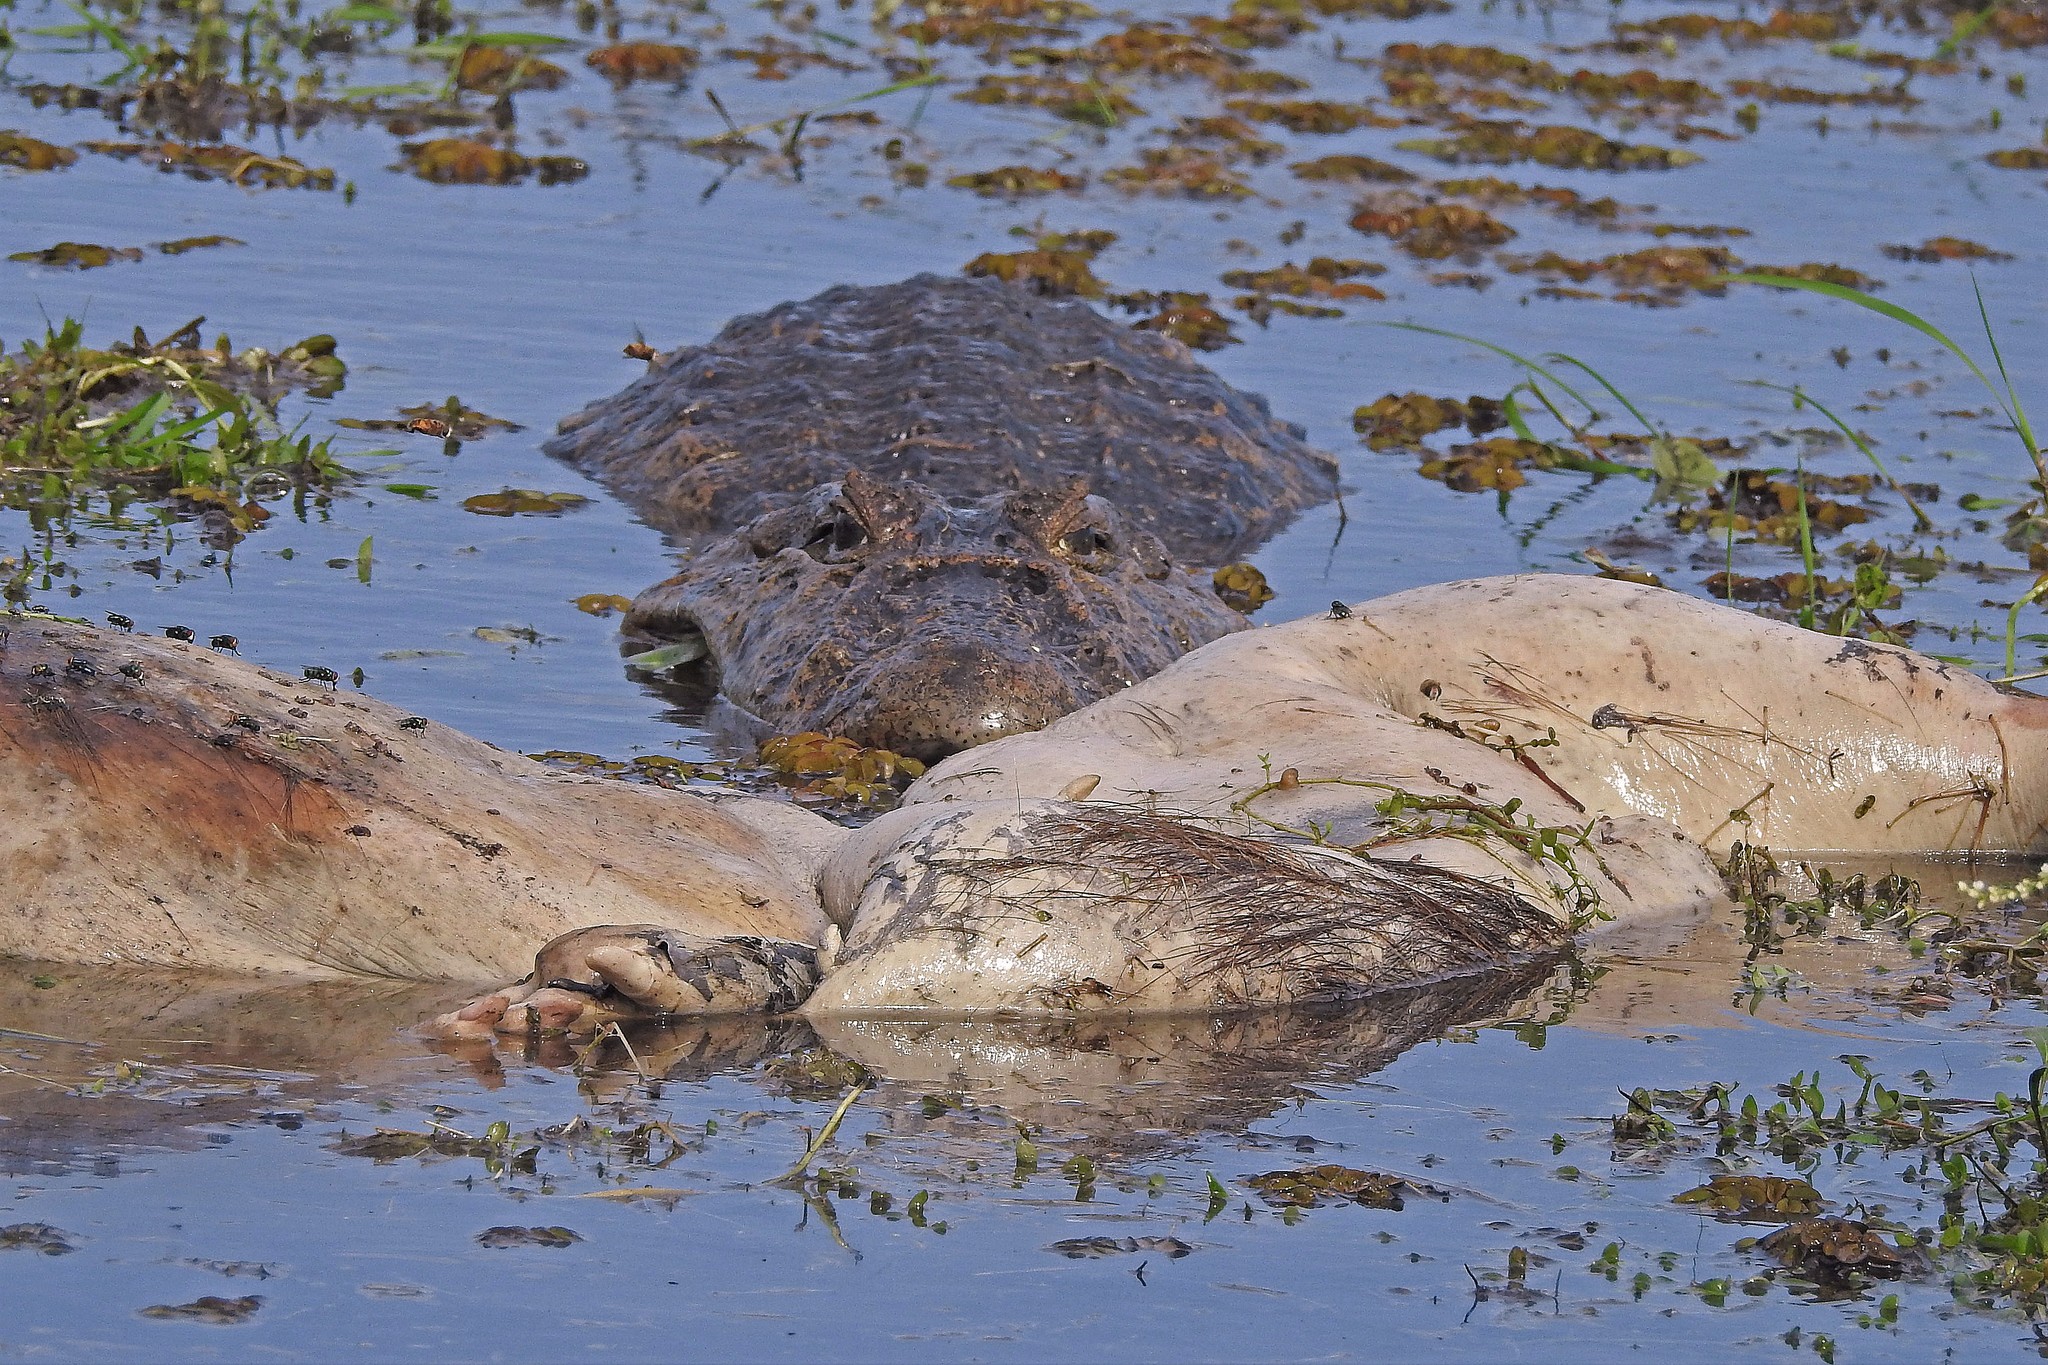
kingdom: Animalia
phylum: Chordata
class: Crocodylia
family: Alligatoridae
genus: Caiman
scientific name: Caiman latirostris
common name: Broad-snouted caiman
